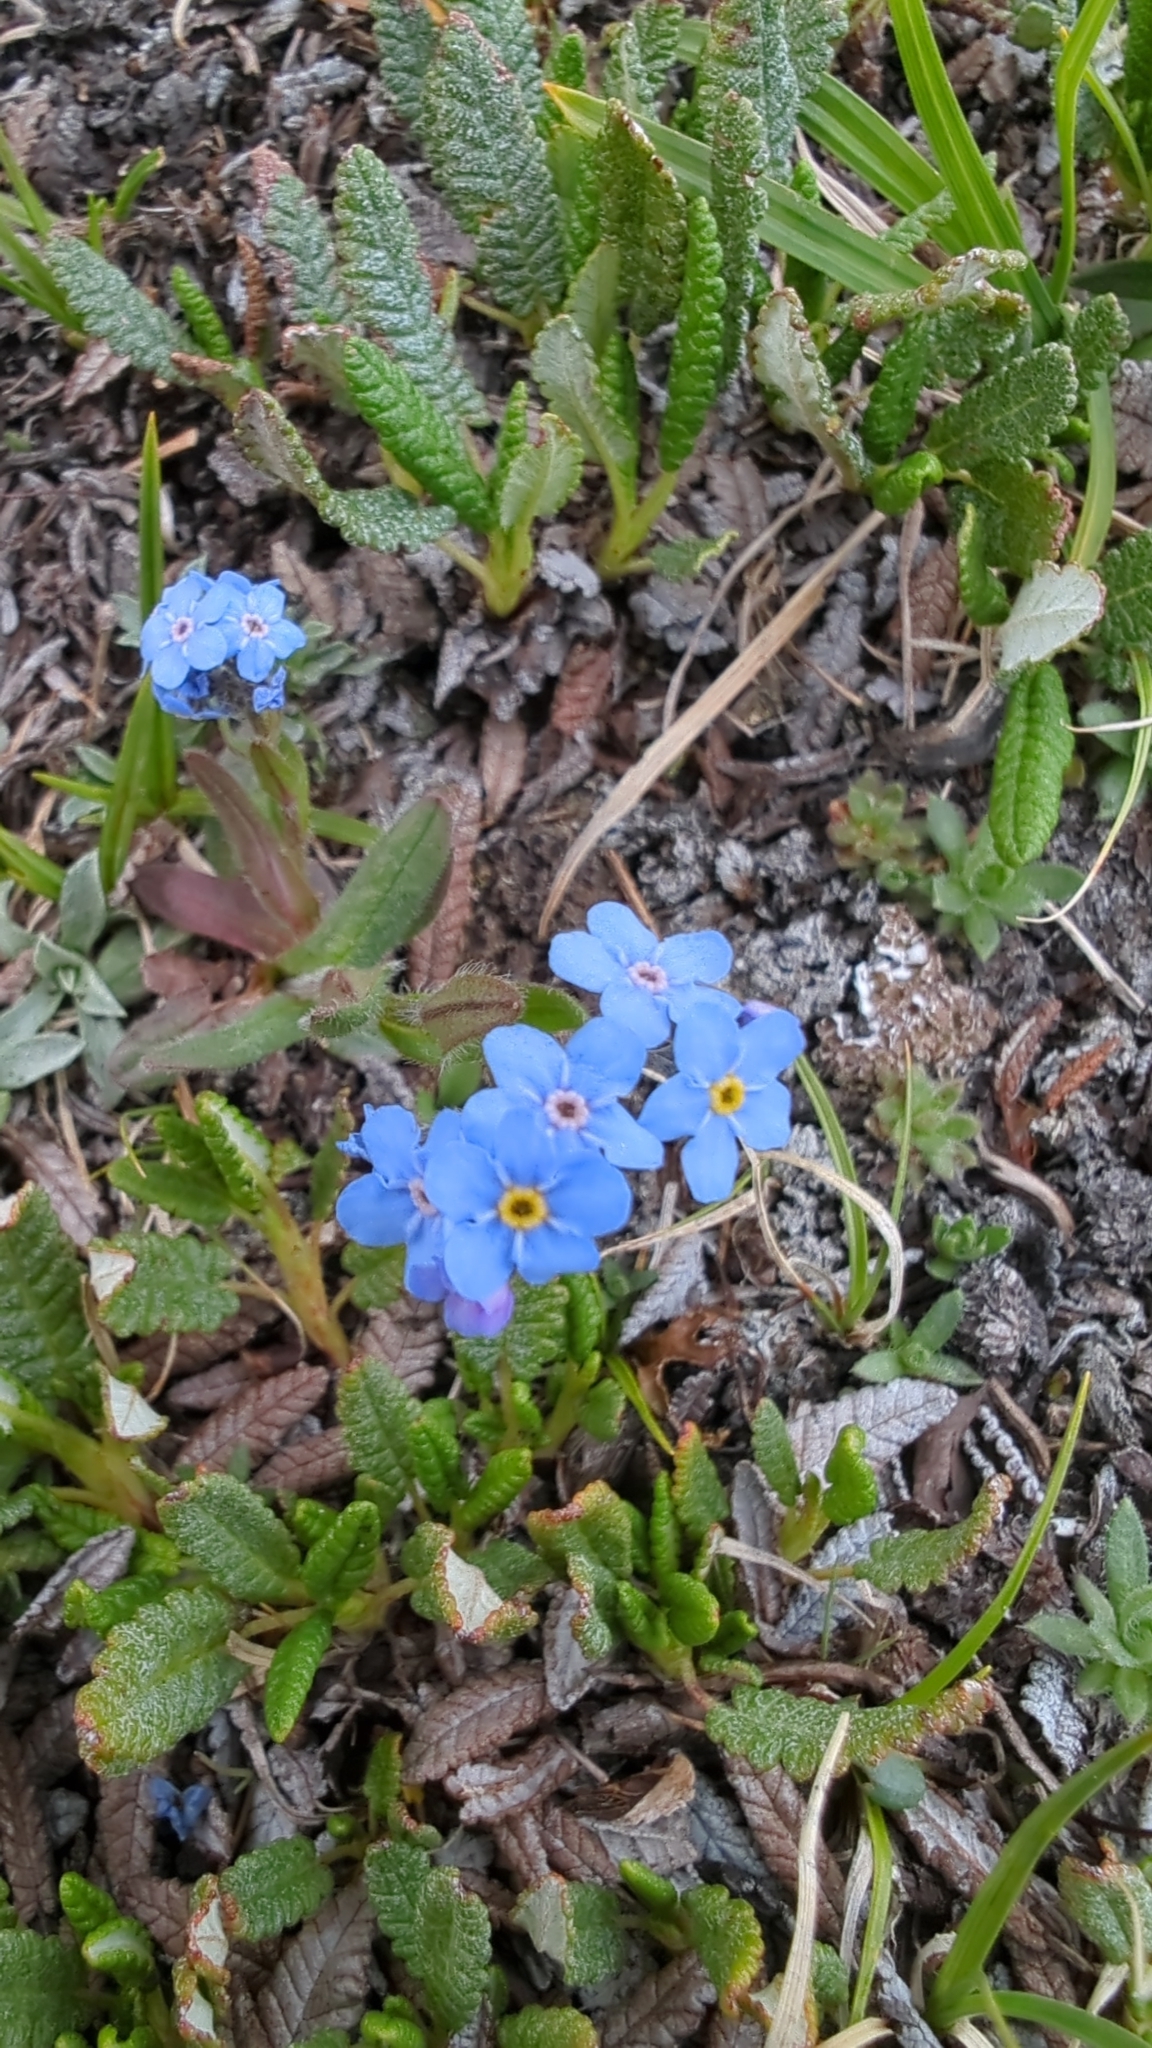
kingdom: Plantae
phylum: Tracheophyta
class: Magnoliopsida
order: Boraginales
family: Boraginaceae
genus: Myosotis
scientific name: Myosotis asiatica
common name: Asian forget-me-not
